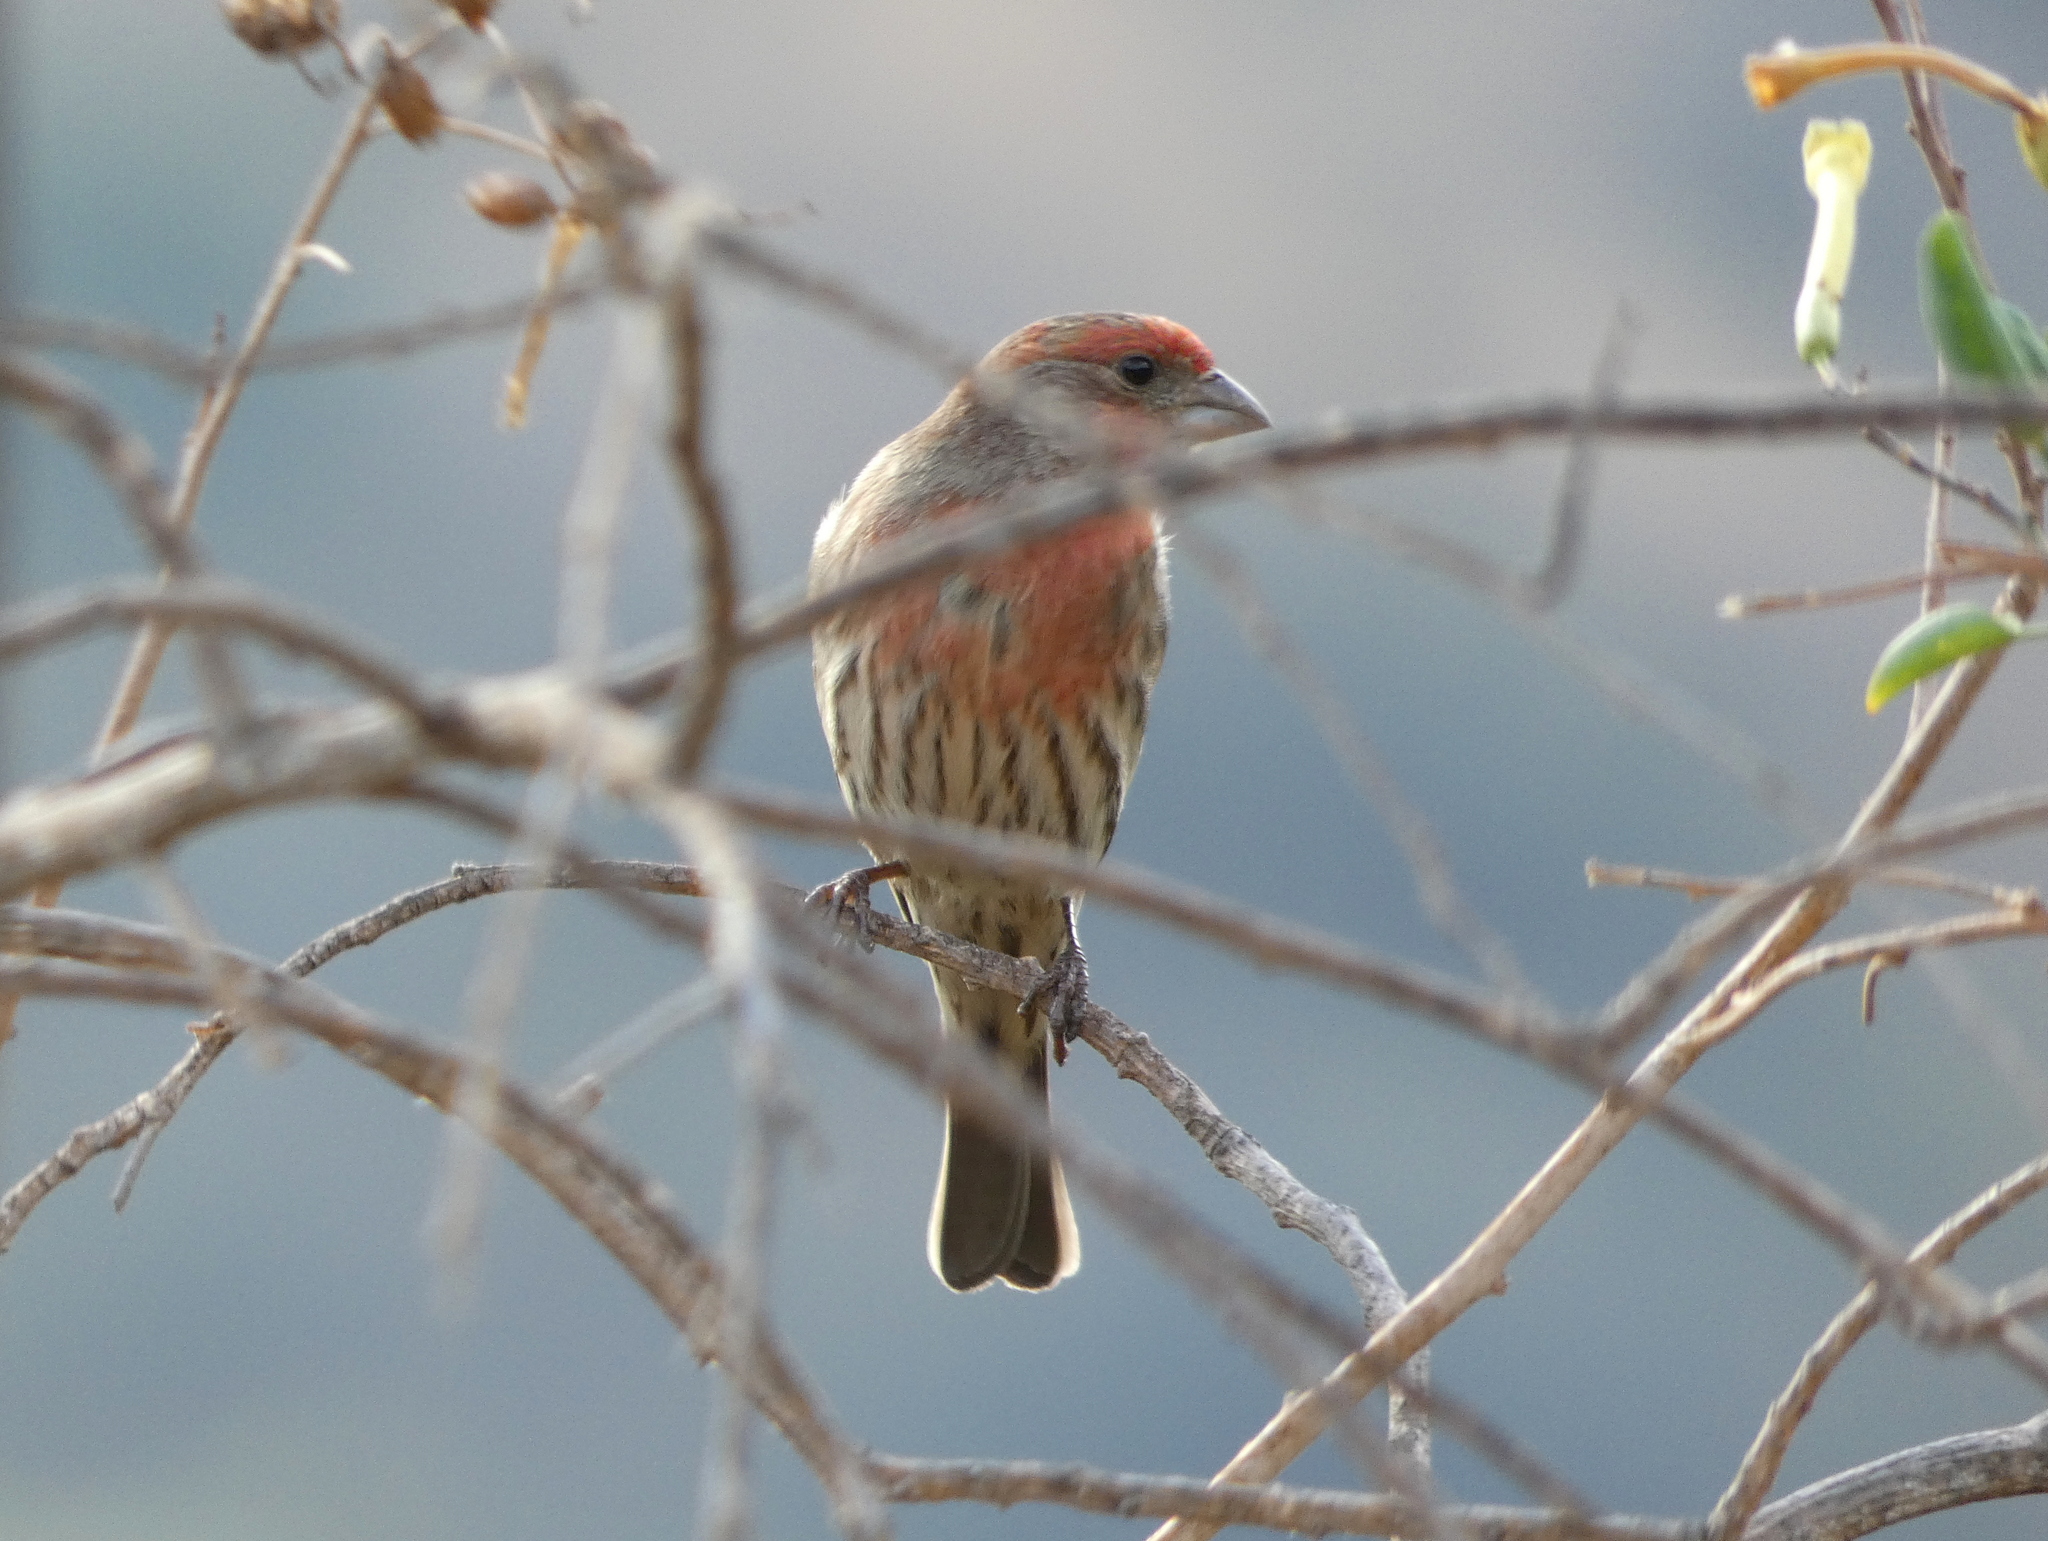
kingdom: Animalia
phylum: Chordata
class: Aves
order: Passeriformes
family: Fringillidae
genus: Haemorhous
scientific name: Haemorhous mexicanus
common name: House finch
